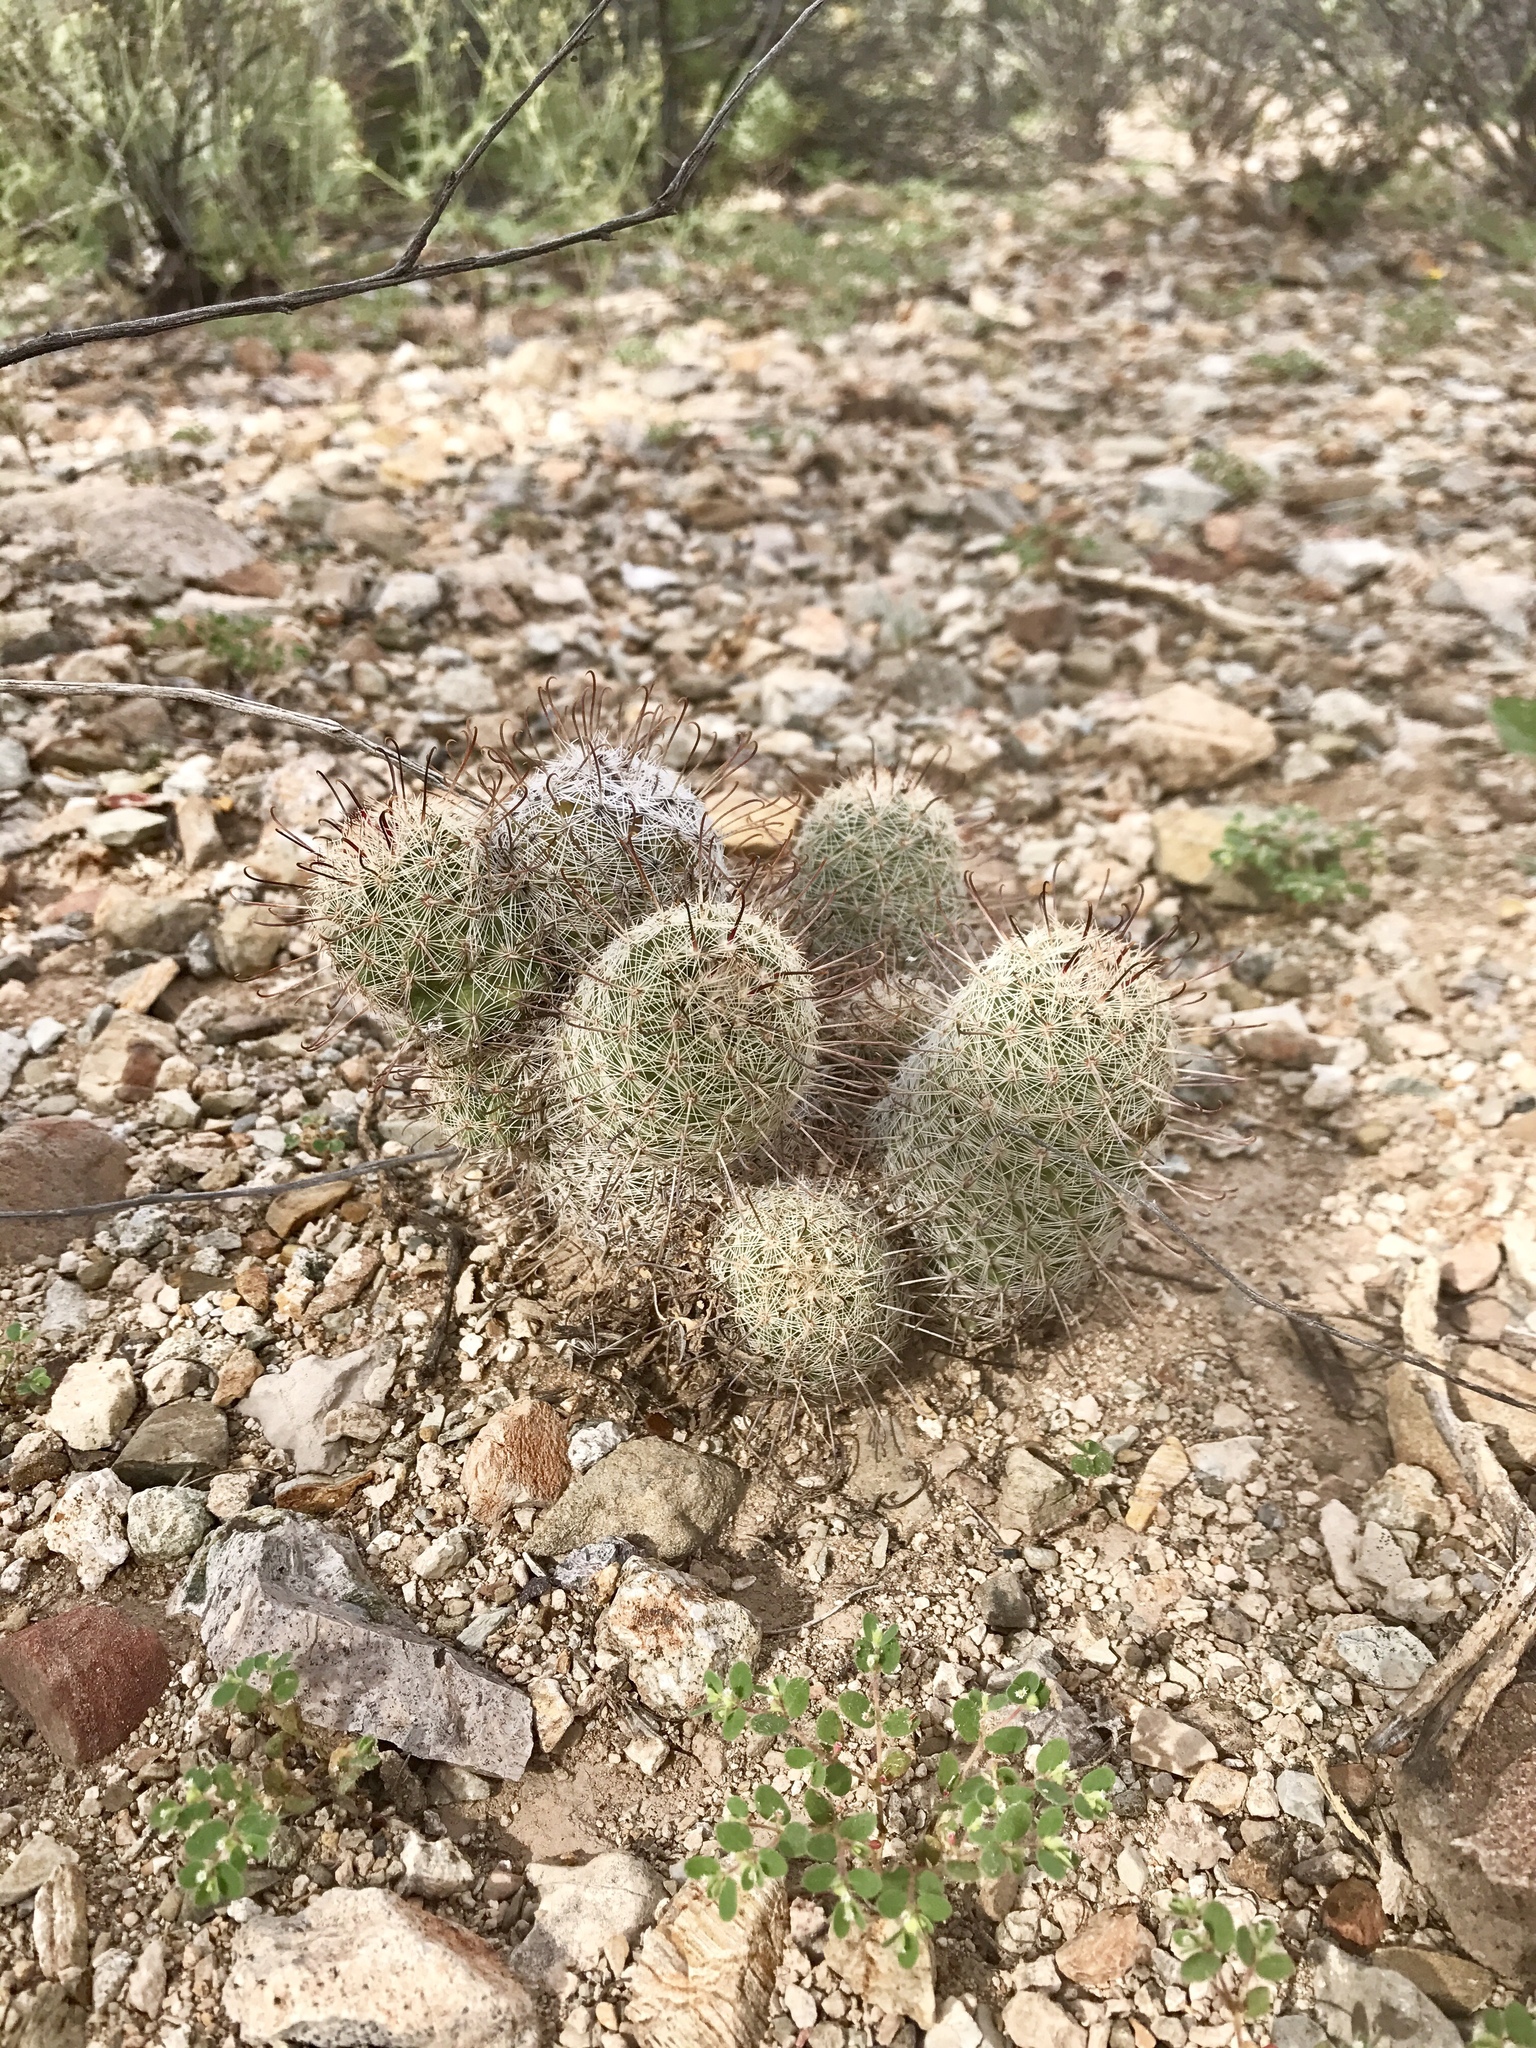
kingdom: Plantae
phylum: Tracheophyta
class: Magnoliopsida
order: Caryophyllales
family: Cactaceae
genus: Cochemiea
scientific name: Cochemiea grahamii
